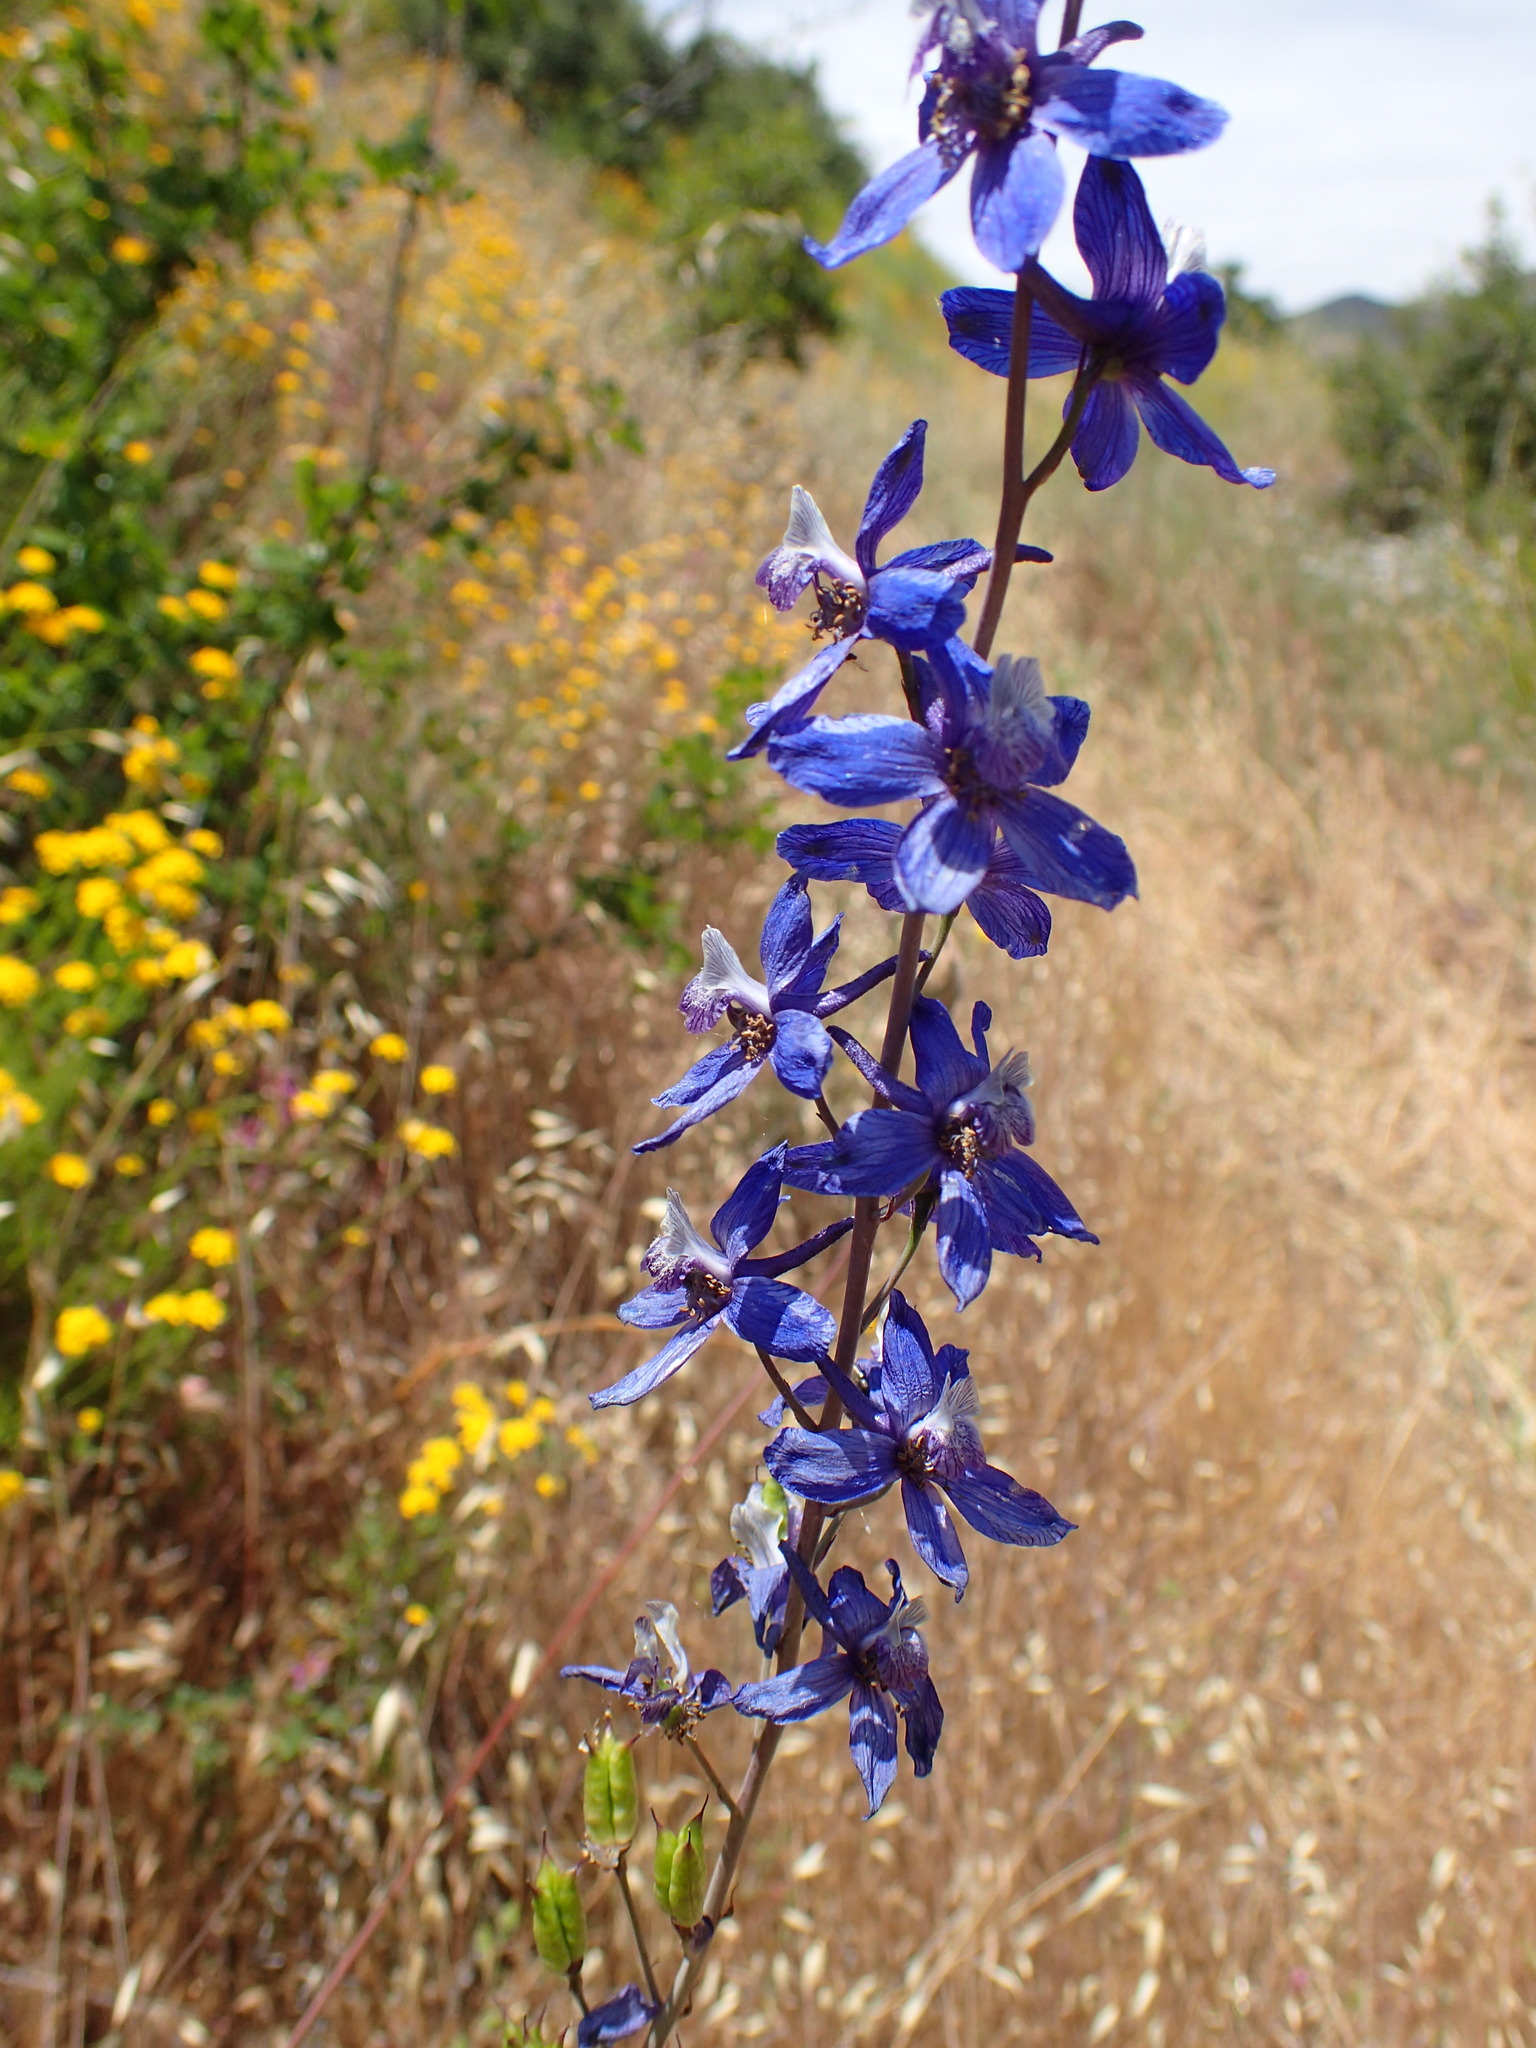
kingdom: Plantae
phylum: Tracheophyta
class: Magnoliopsida
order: Ranunculales
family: Ranunculaceae
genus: Delphinium
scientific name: Delphinium parryi
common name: Parry's larkspur
